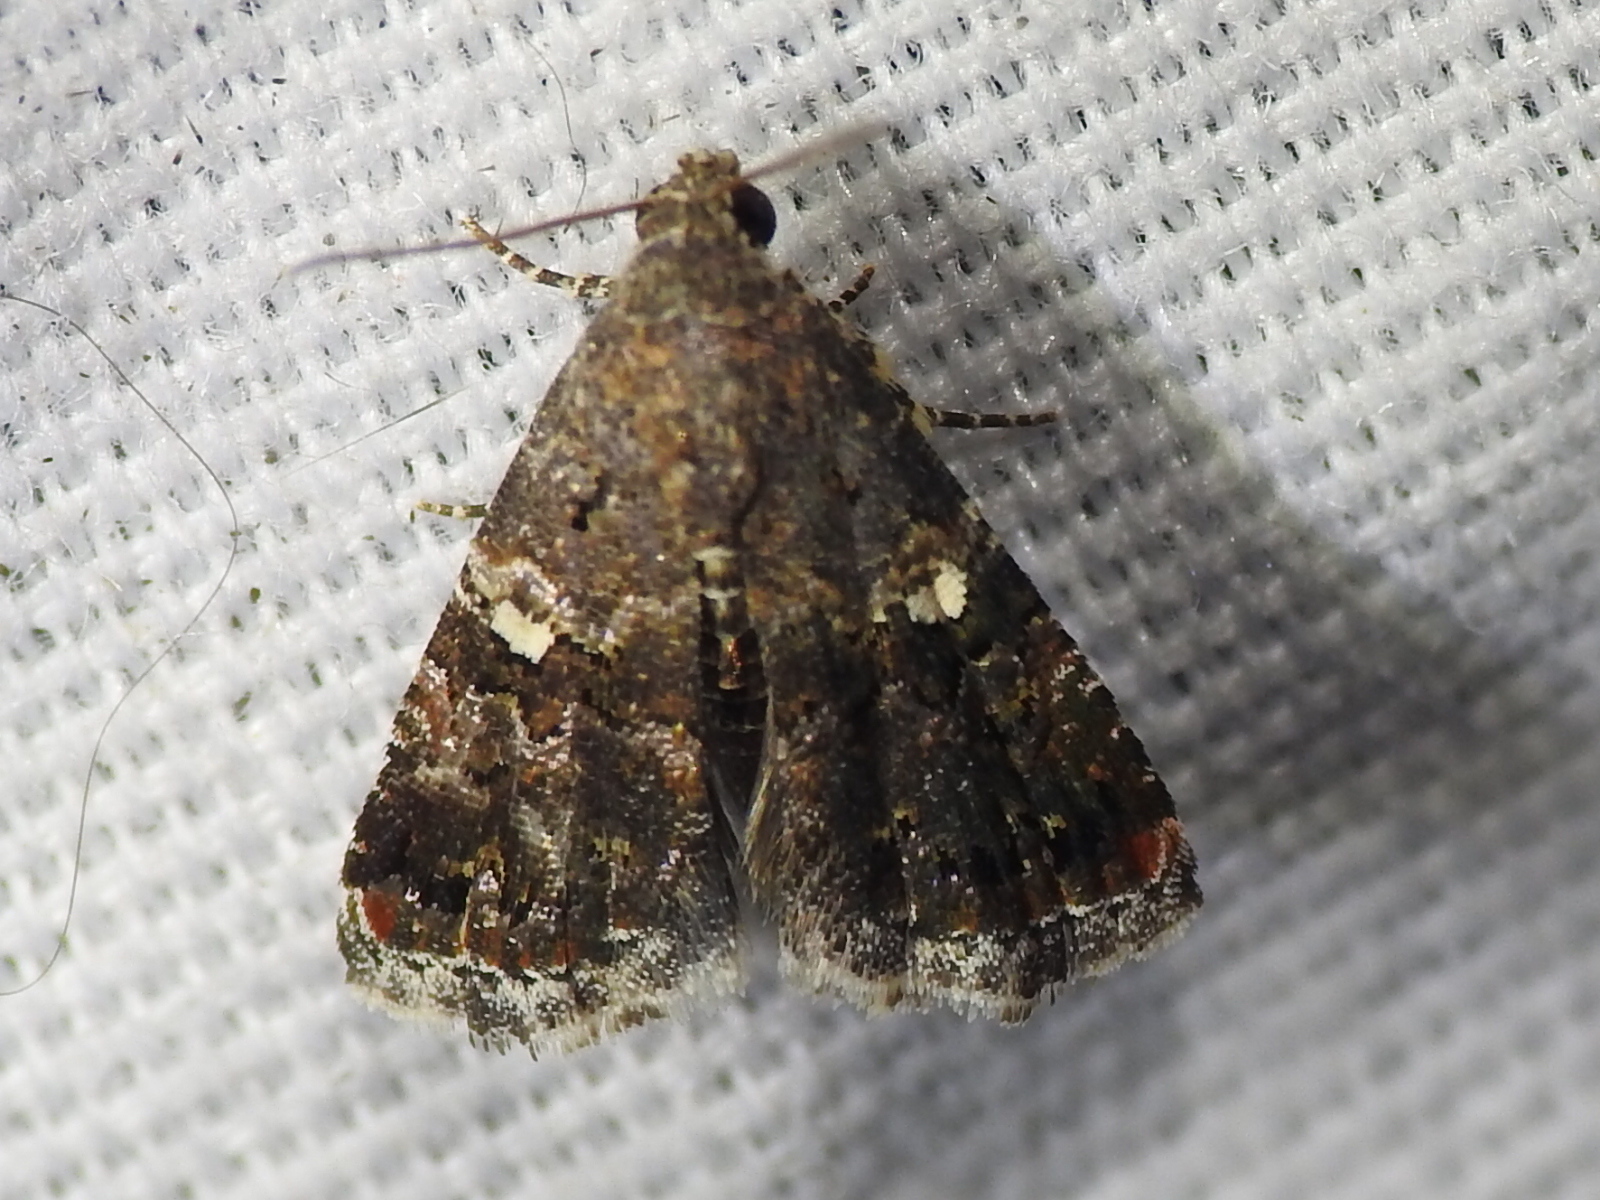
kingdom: Animalia
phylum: Arthropoda
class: Insecta
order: Lepidoptera
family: Noctuidae
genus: Tripudia
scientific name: Tripudia luxuriosa
